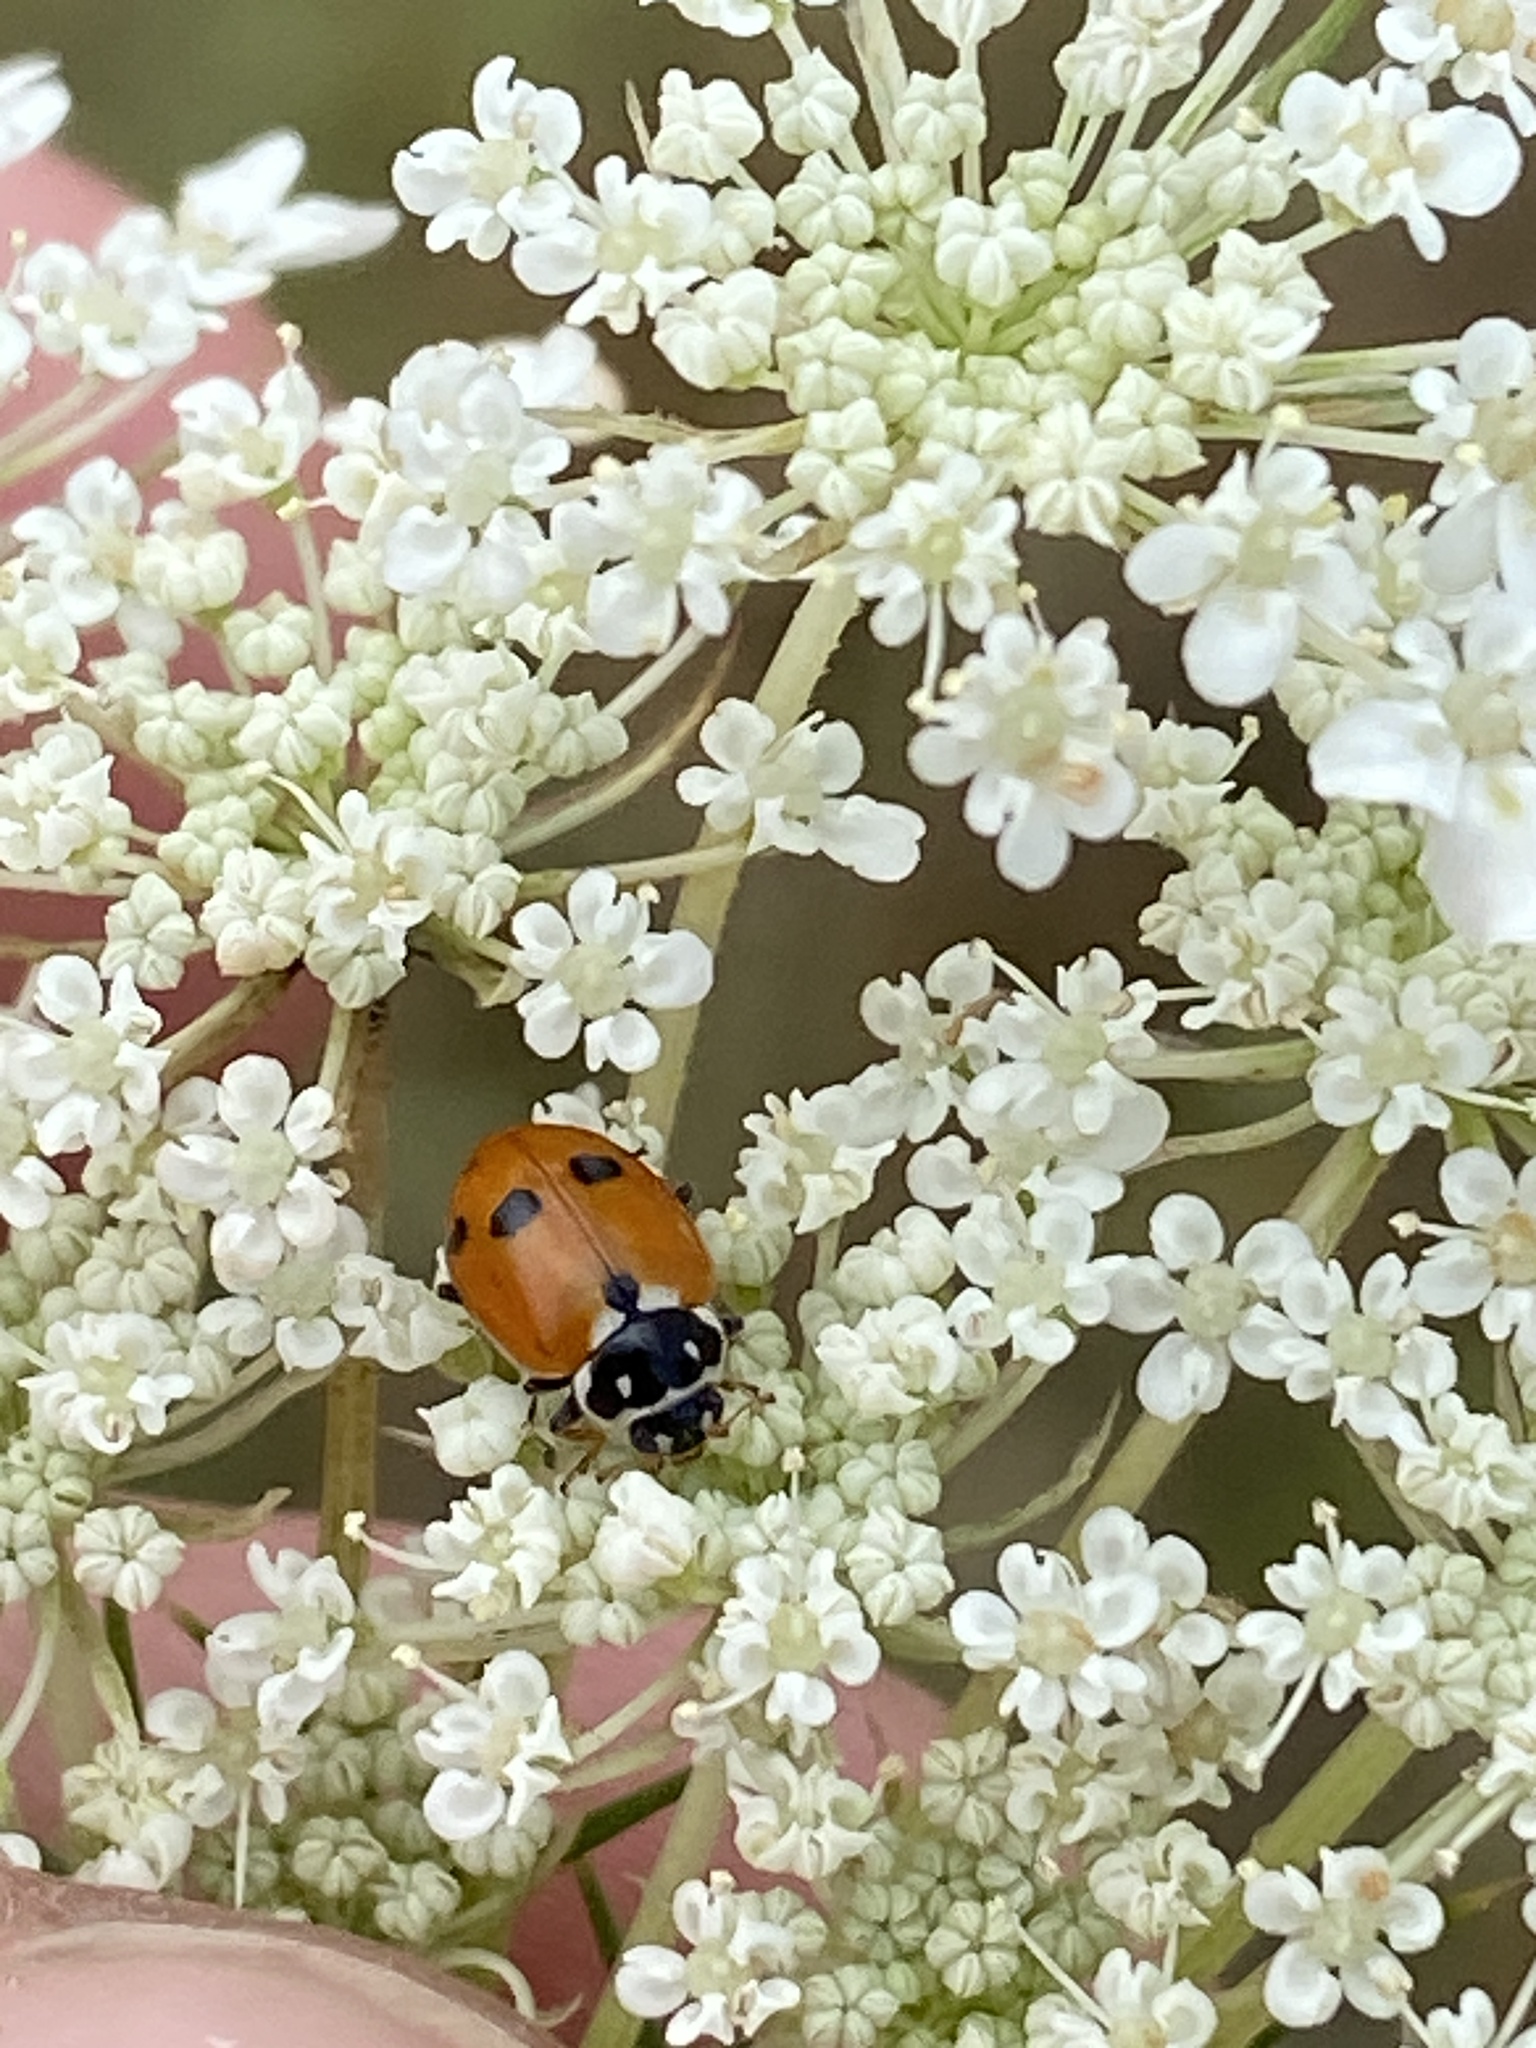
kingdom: Animalia
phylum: Arthropoda
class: Insecta
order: Coleoptera
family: Coccinellidae
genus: Hippodamia
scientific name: Hippodamia variegata
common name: Ladybird beetle
